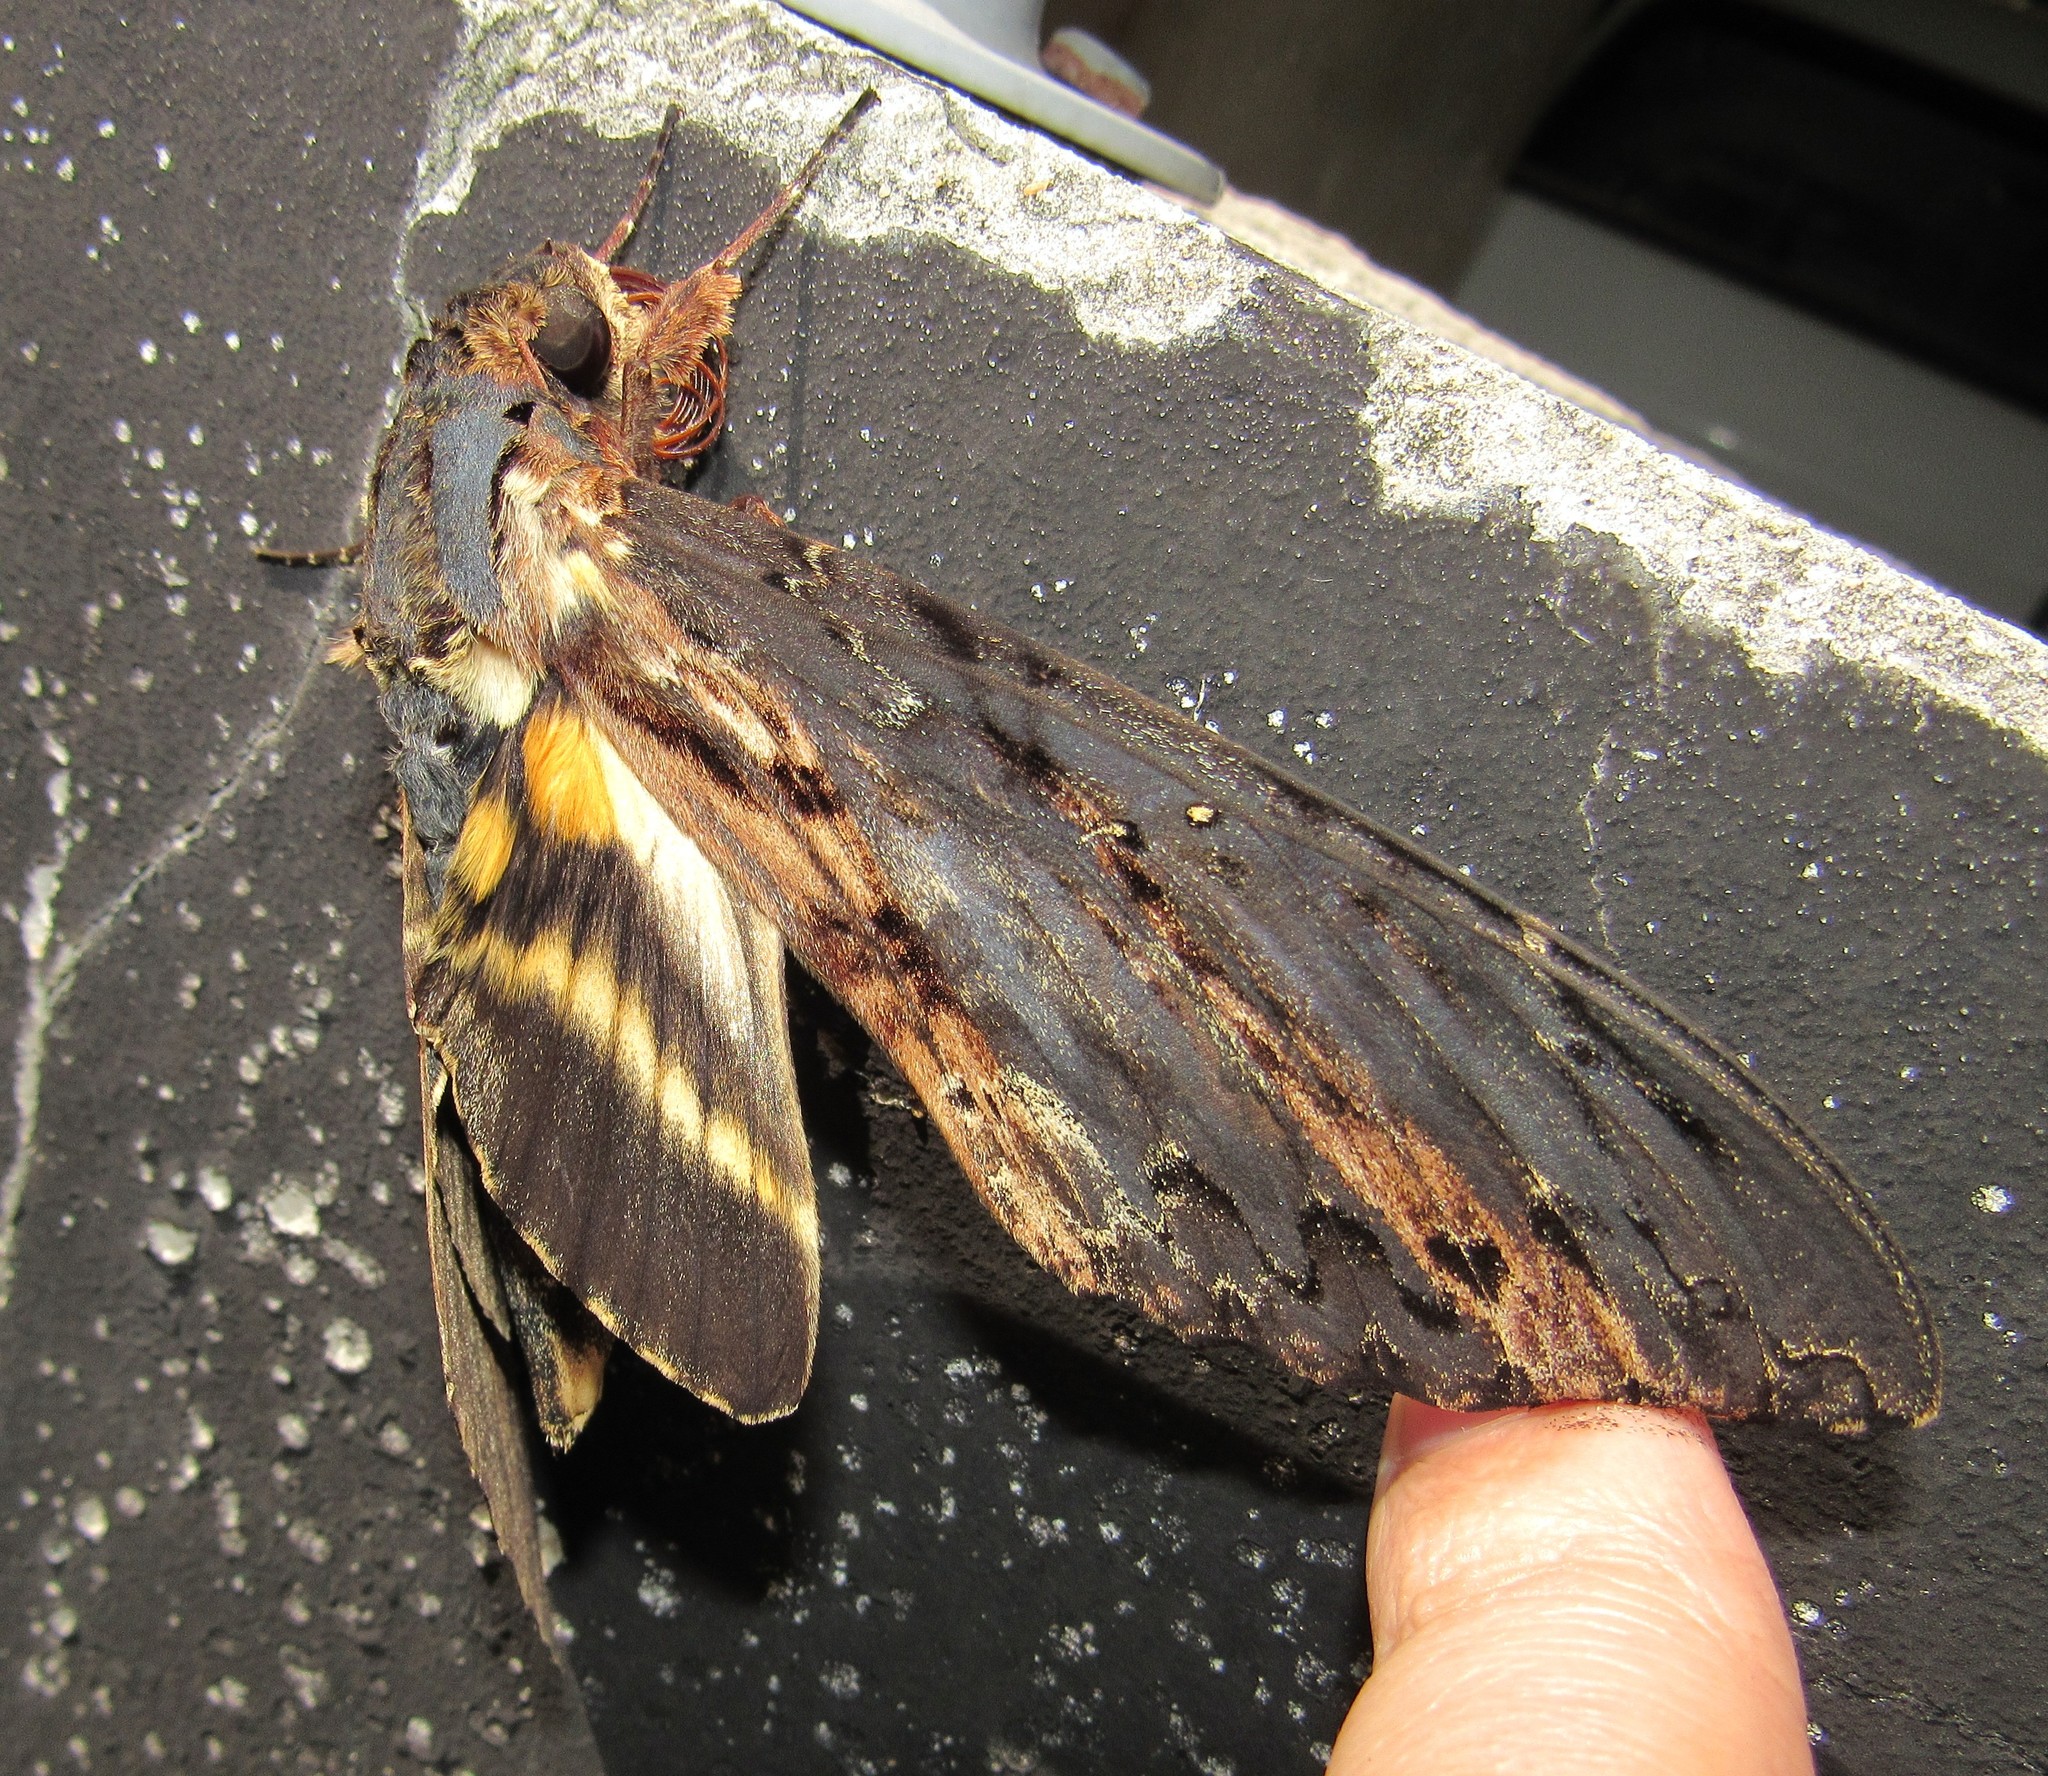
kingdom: Animalia
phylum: Arthropoda
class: Insecta
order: Lepidoptera
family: Sphingidae
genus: Neococytius
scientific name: Neococytius cluentius
